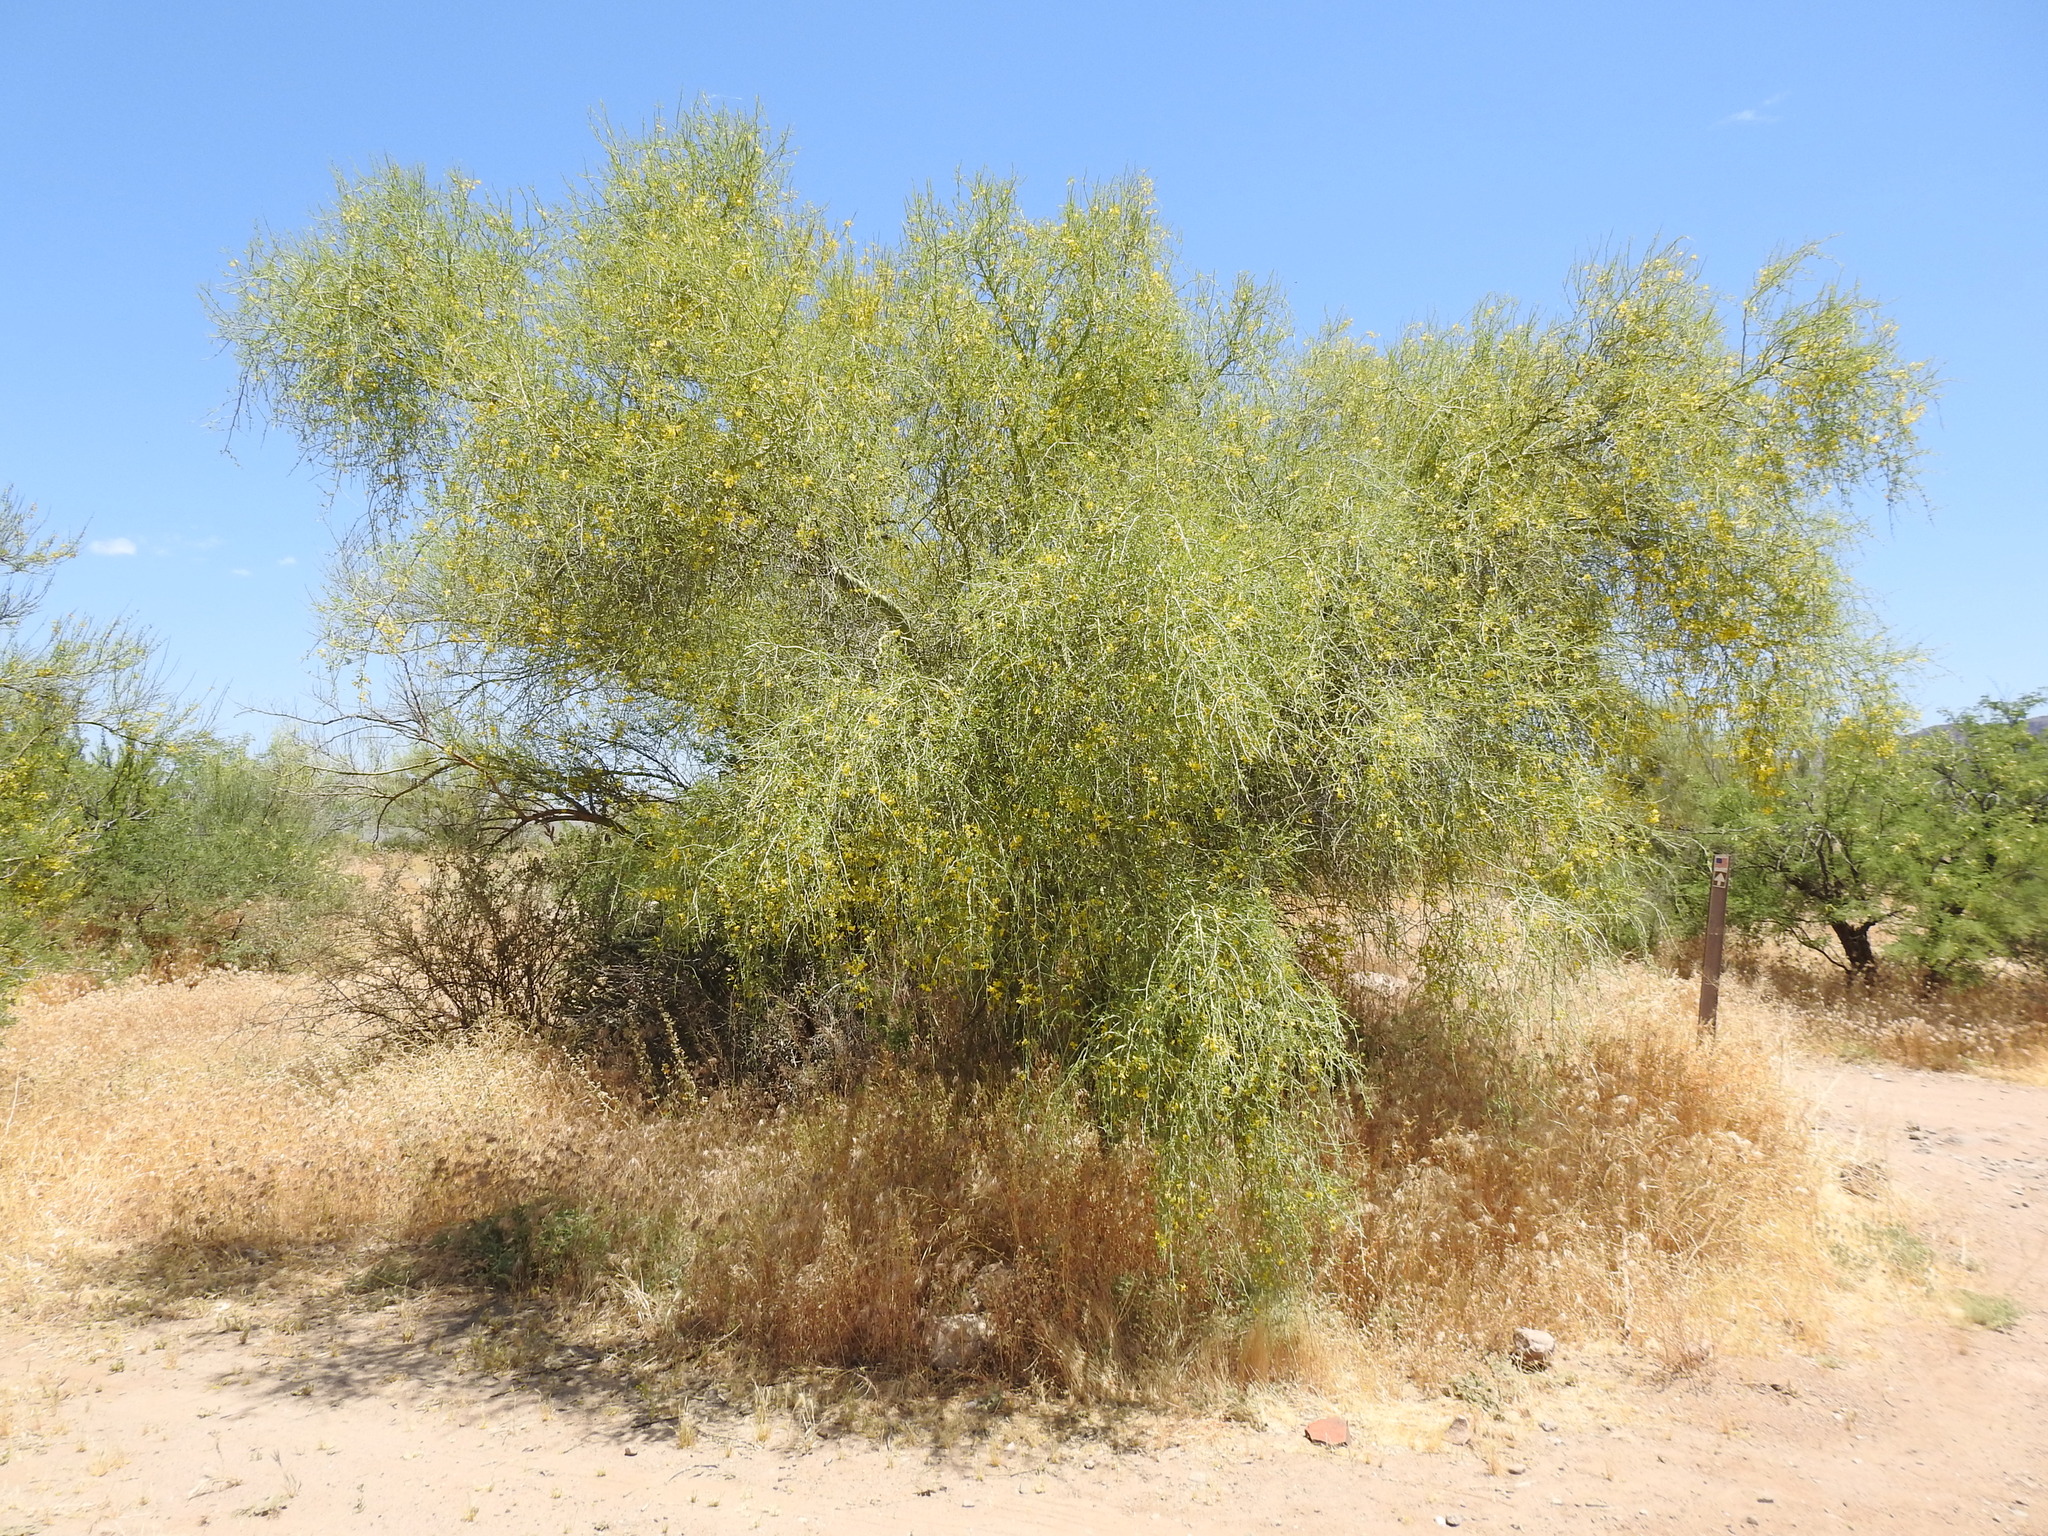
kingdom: Plantae
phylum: Tracheophyta
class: Magnoliopsida
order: Fabales
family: Fabaceae
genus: Parkinsonia
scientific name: Parkinsonia florida
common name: Blue paloverde
